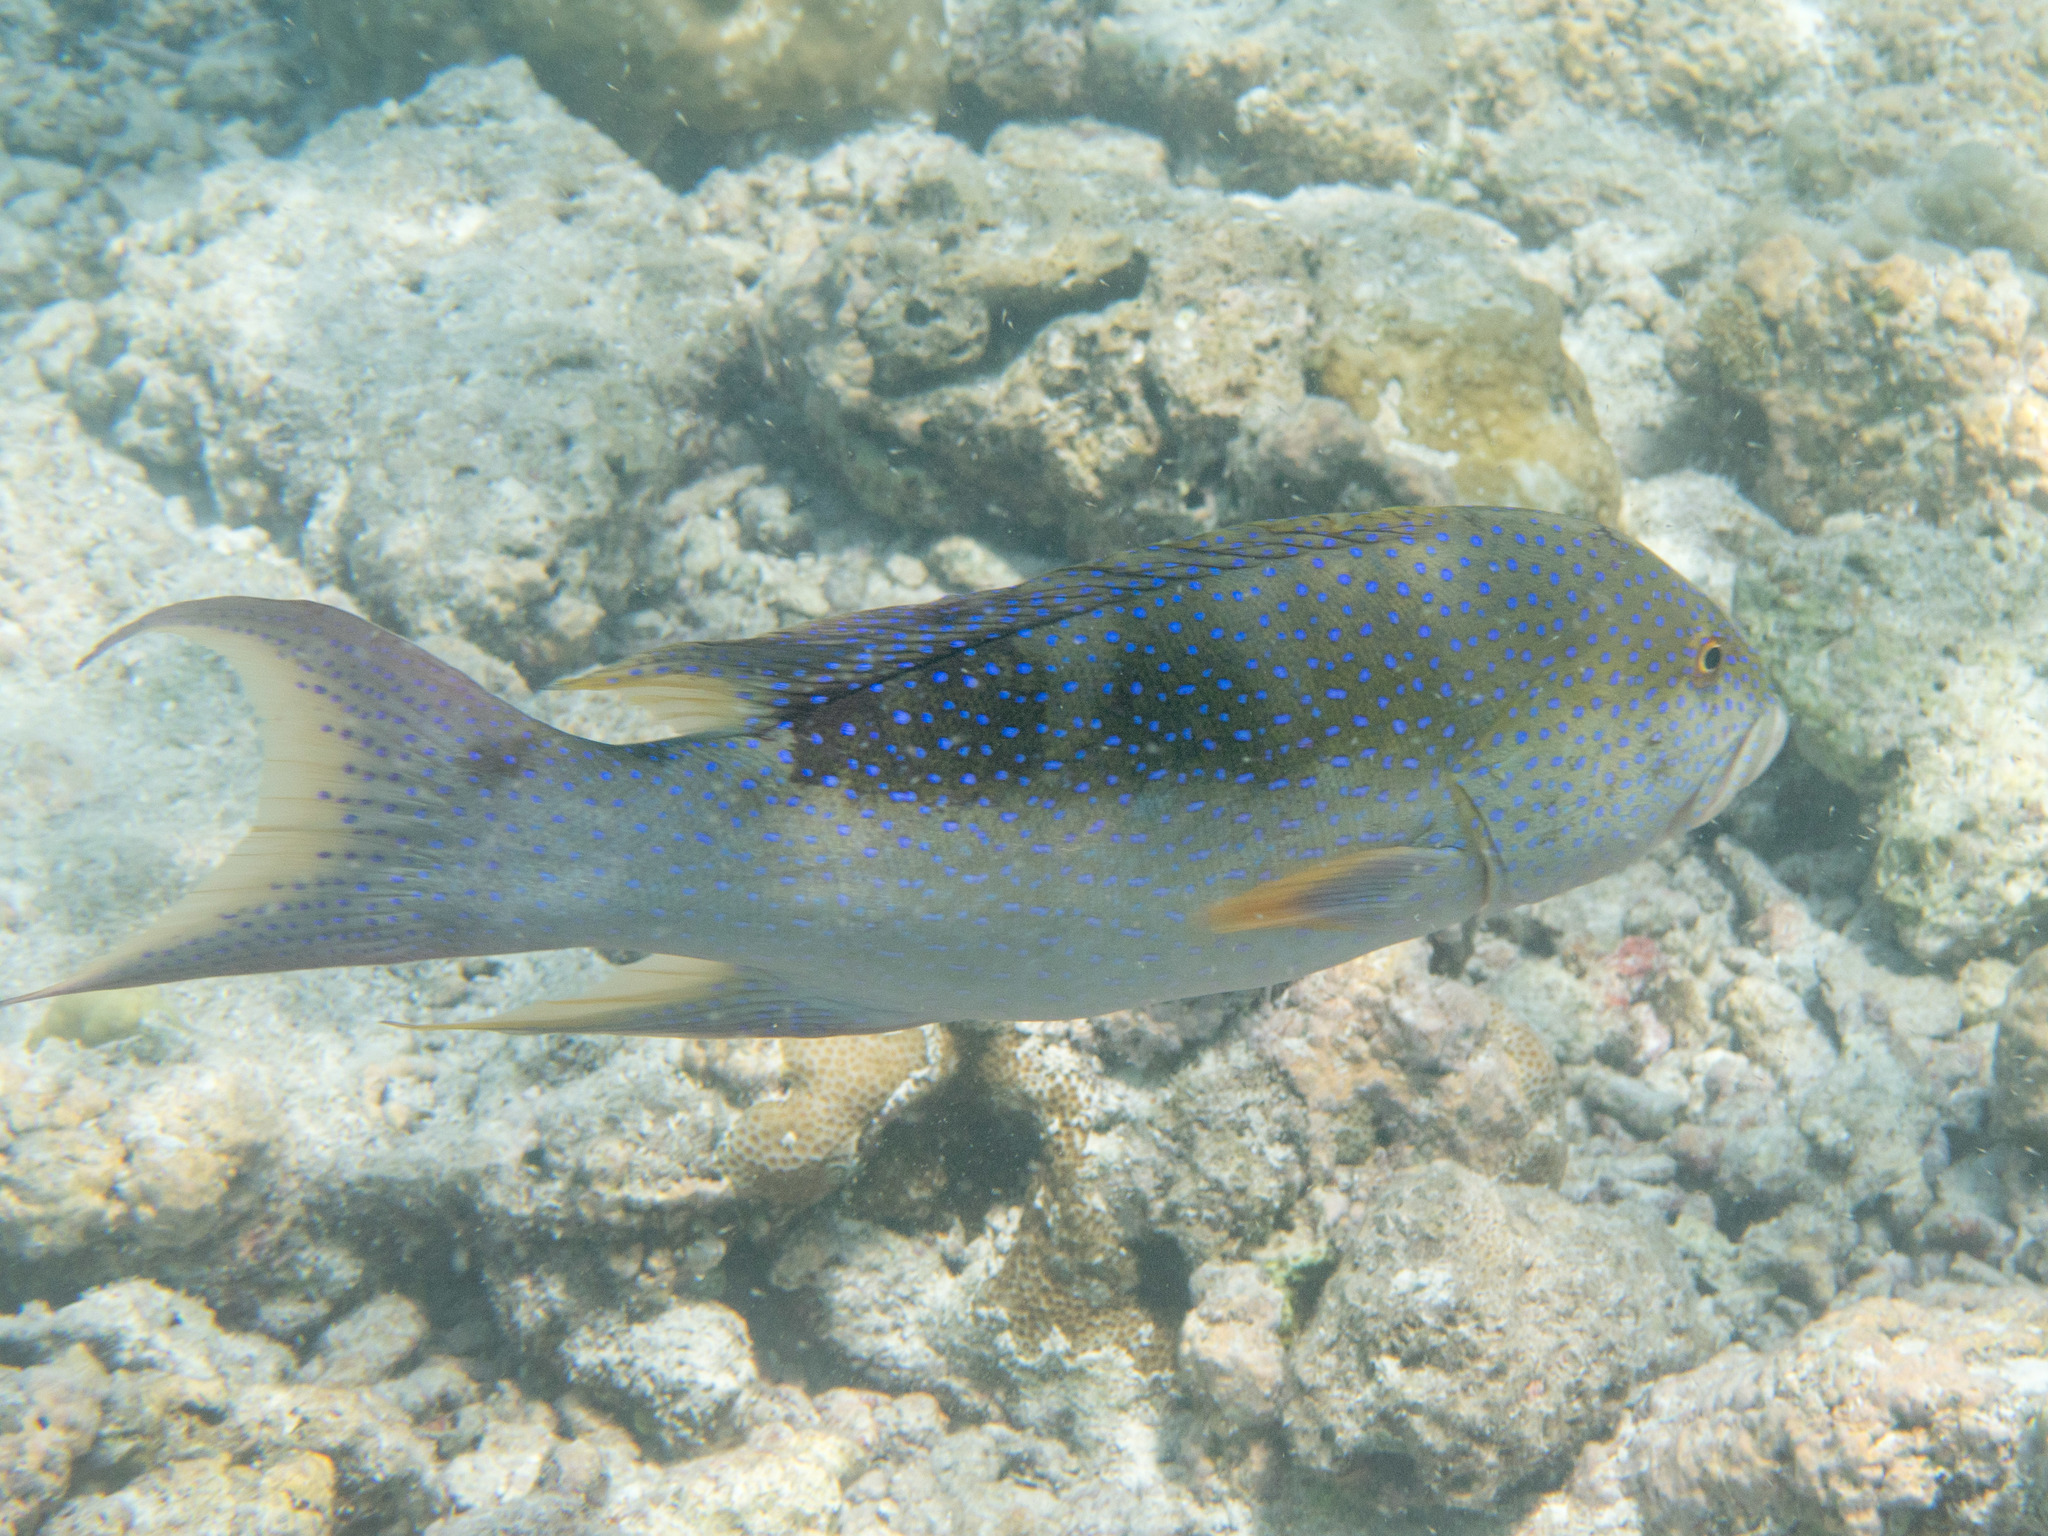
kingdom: Animalia
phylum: Chordata
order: Perciformes
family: Serranidae
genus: Variola
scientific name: Variola louti
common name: Yellow-edged lyretail
